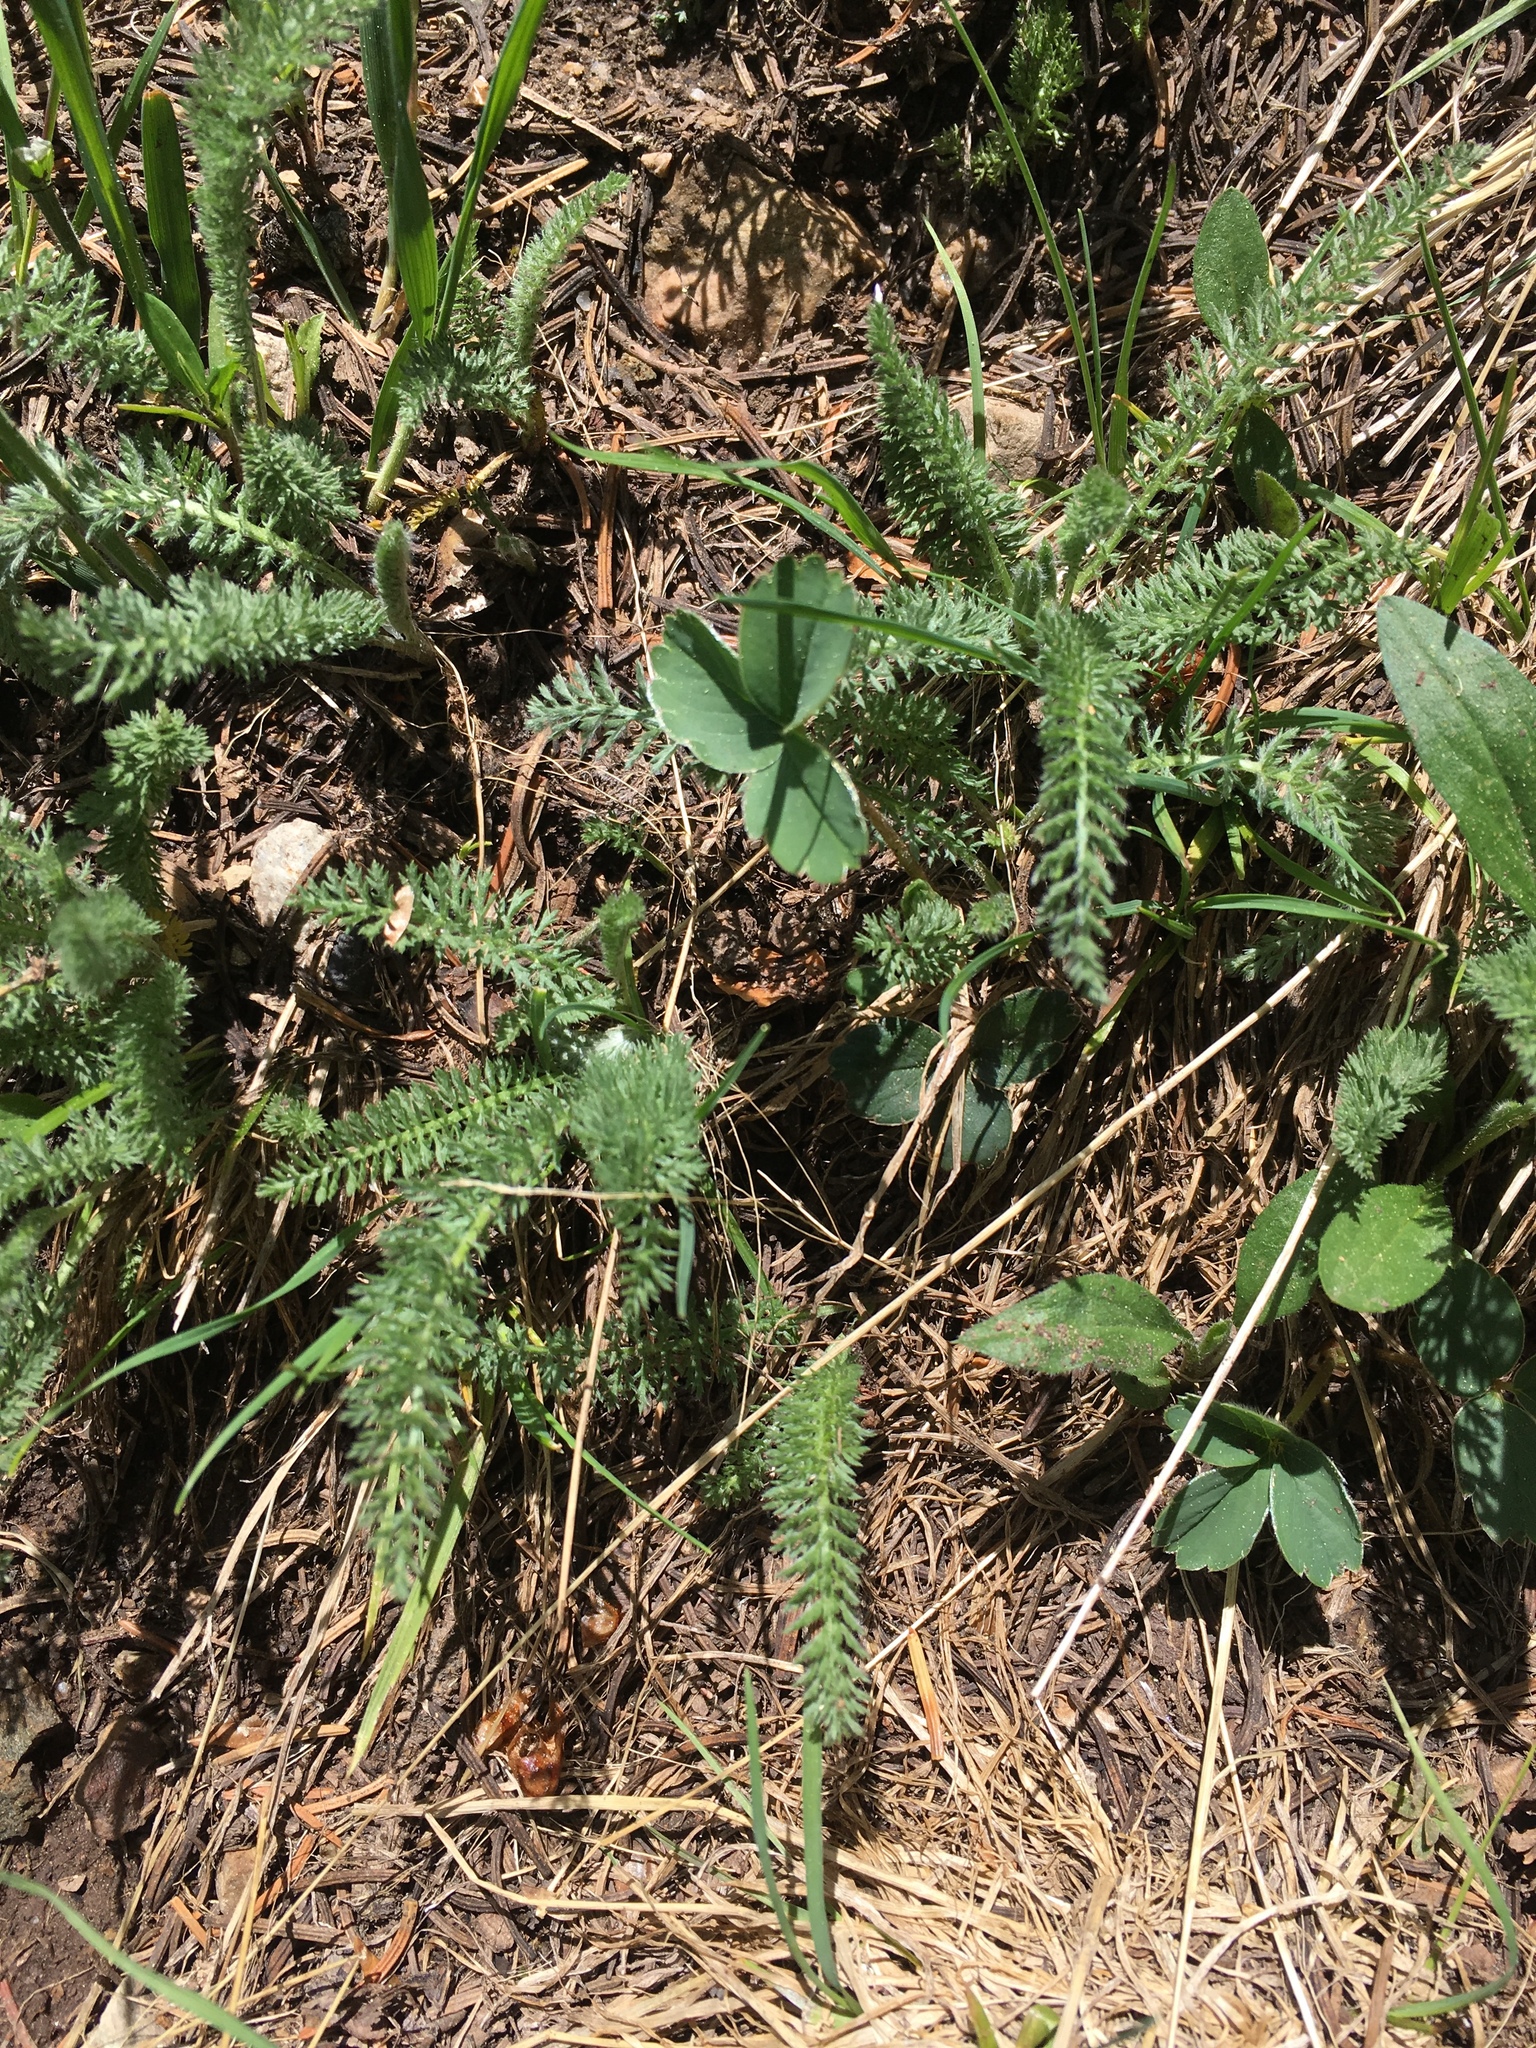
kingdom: Plantae
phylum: Tracheophyta
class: Magnoliopsida
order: Asterales
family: Asteraceae
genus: Achillea
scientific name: Achillea millefolium
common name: Yarrow
